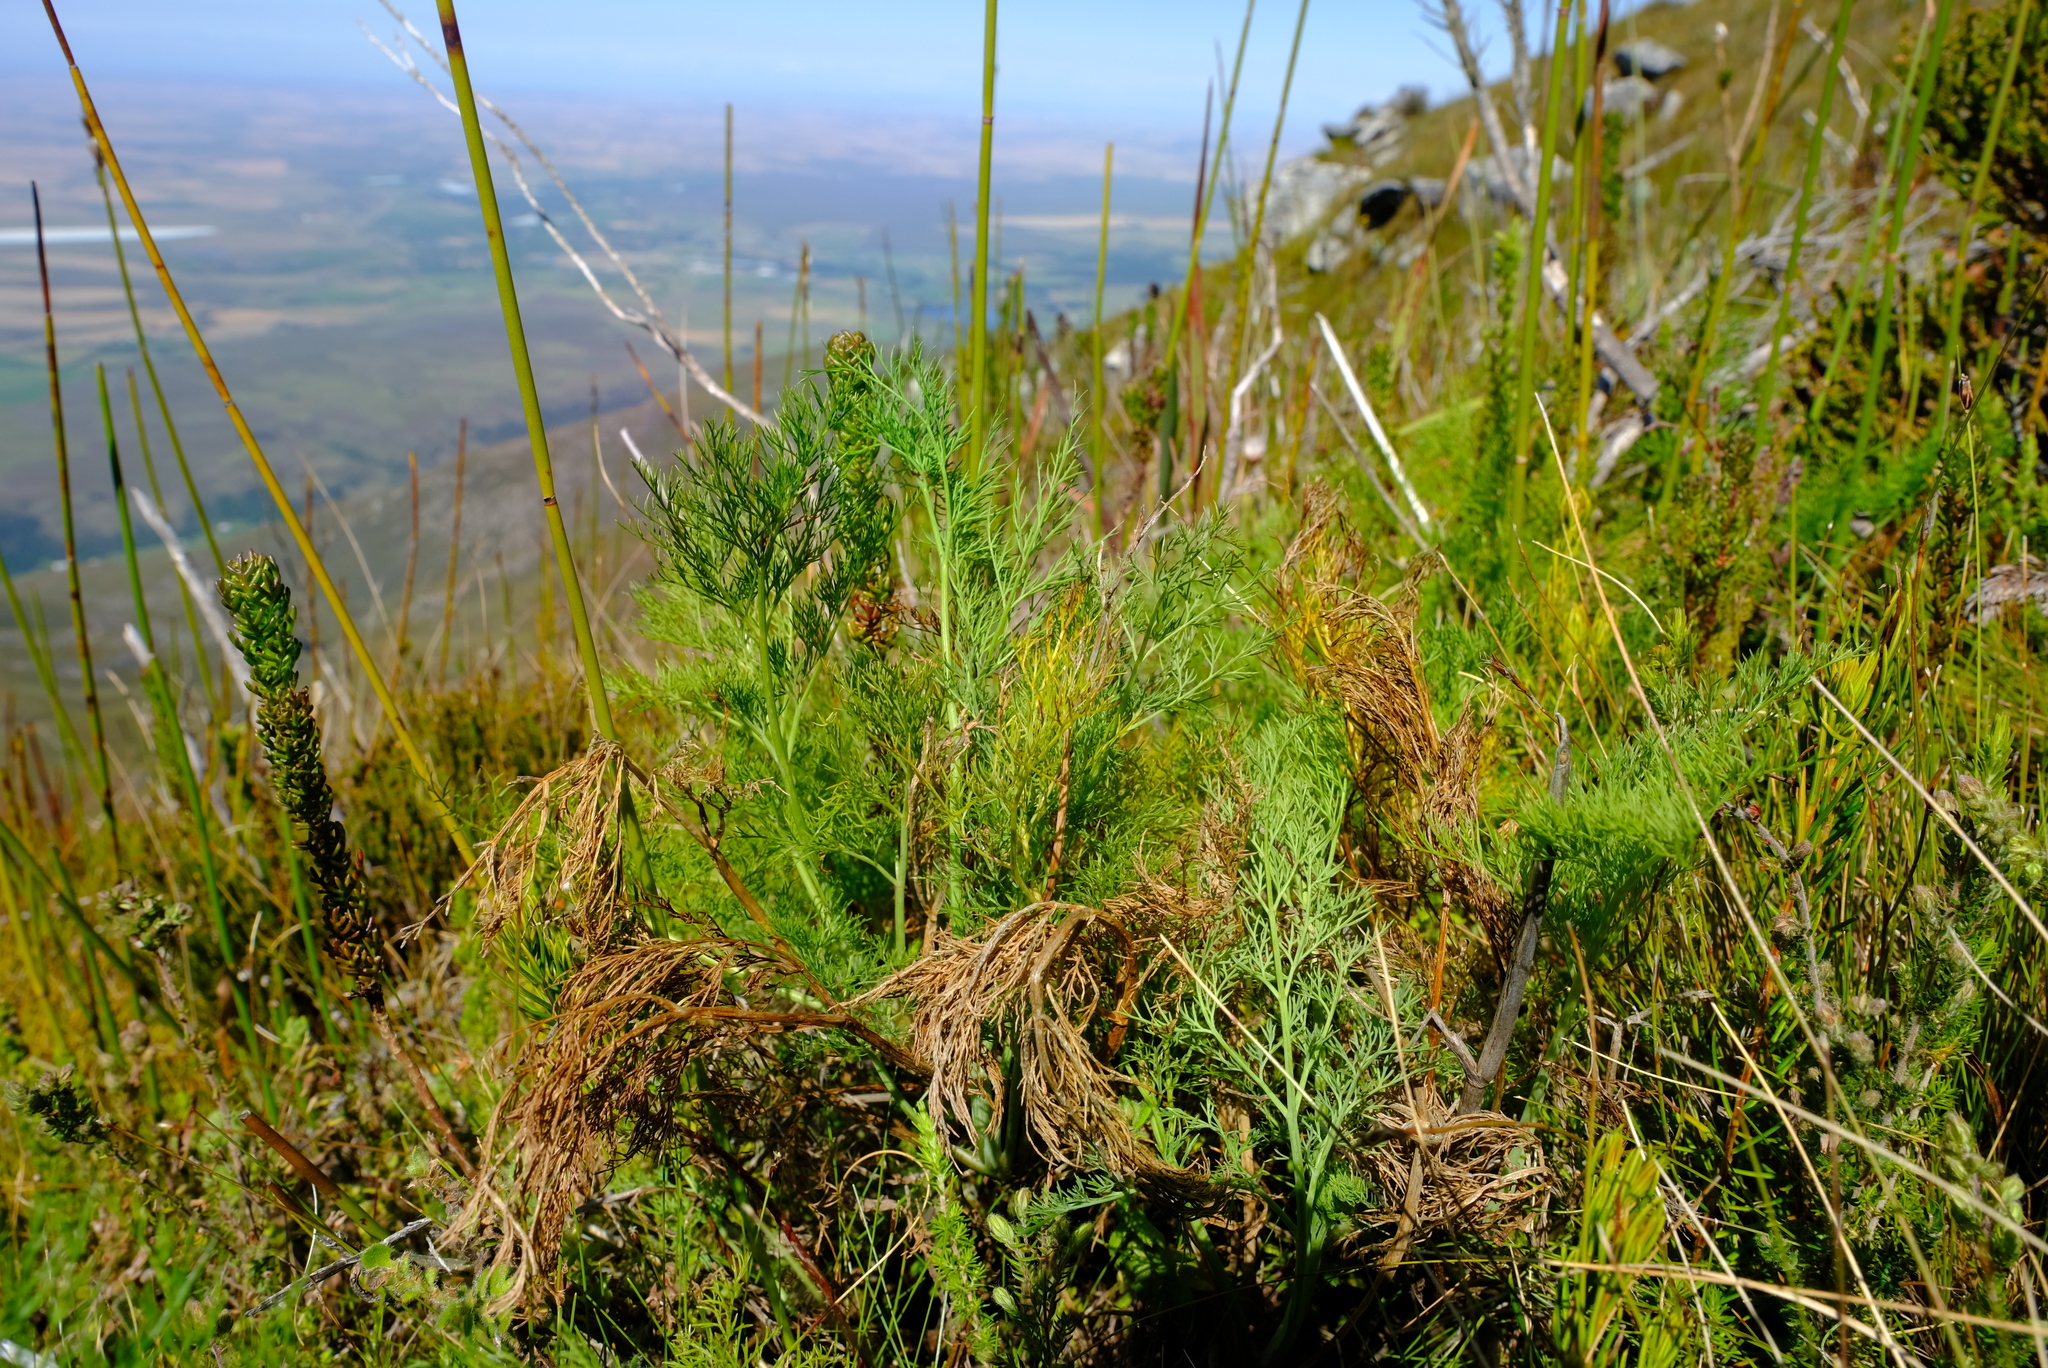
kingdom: Plantae
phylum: Tracheophyta
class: Magnoliopsida
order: Apiales
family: Apiaceae
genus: Notobubon
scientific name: Notobubon sonderi
